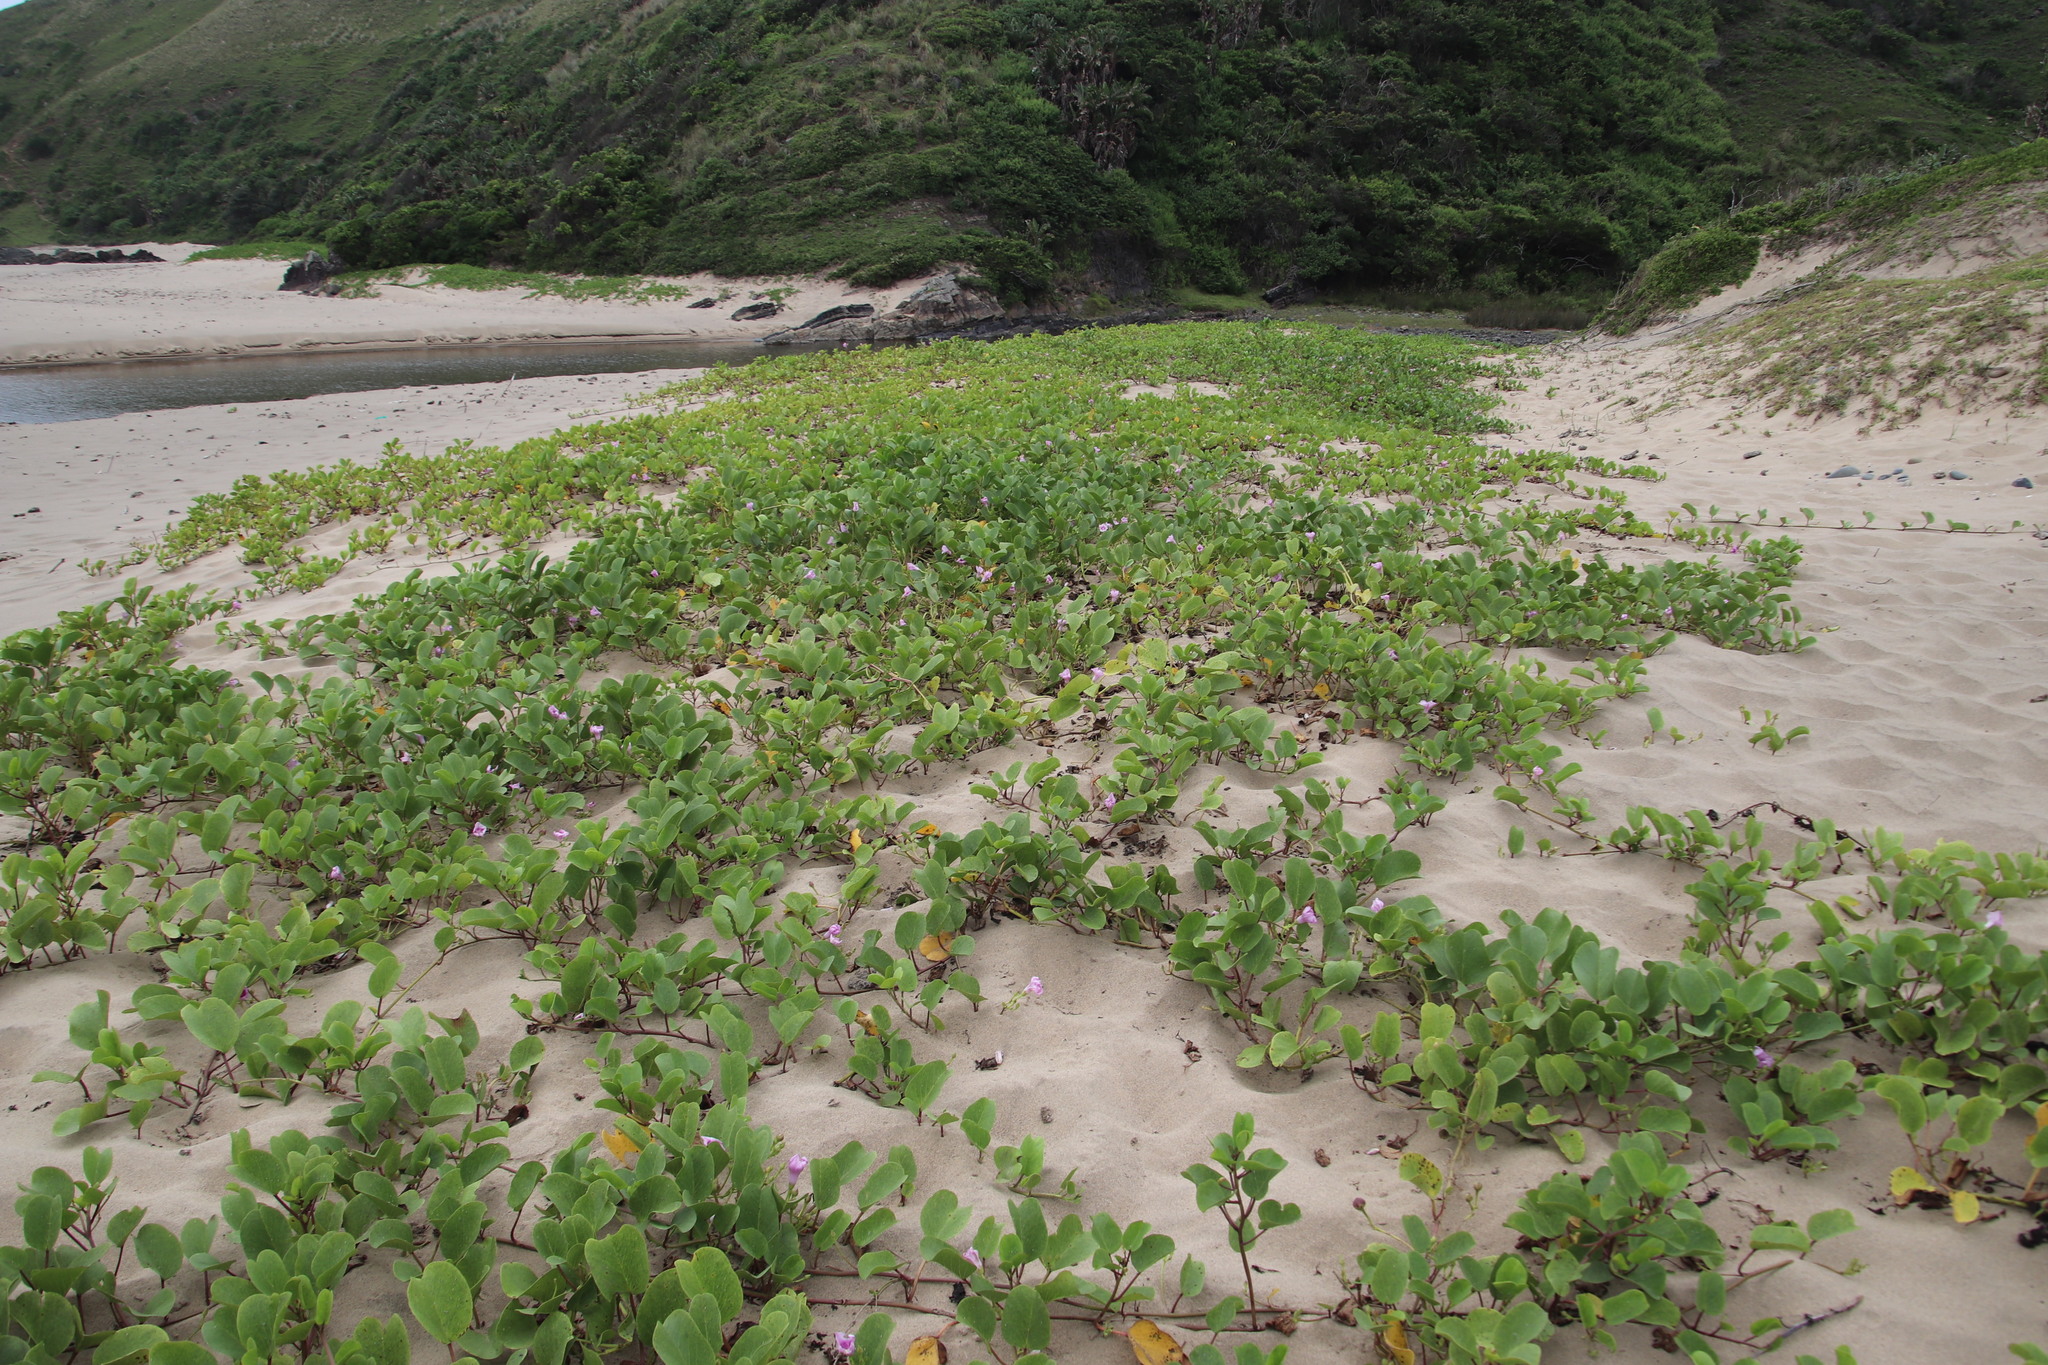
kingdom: Plantae
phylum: Tracheophyta
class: Magnoliopsida
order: Solanales
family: Convolvulaceae
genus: Ipomoea
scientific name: Ipomoea pes-caprae
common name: Beach morning glory
